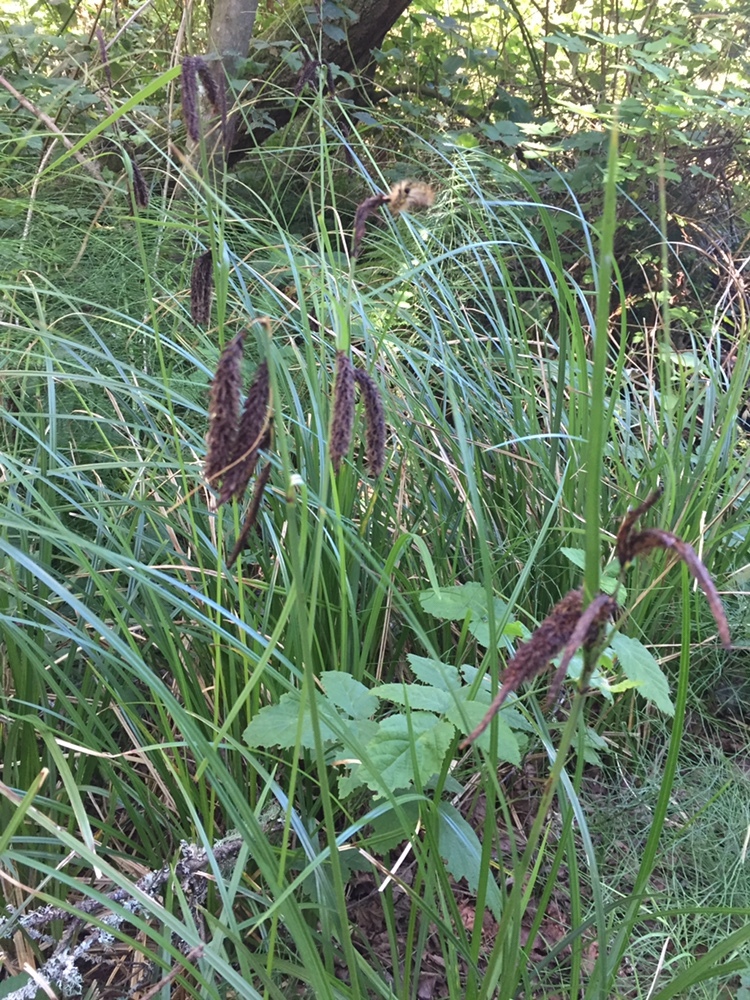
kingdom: Plantae
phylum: Tracheophyta
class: Liliopsida
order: Poales
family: Cyperaceae
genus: Carex
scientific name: Carex obnupta
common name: Slough sedge
